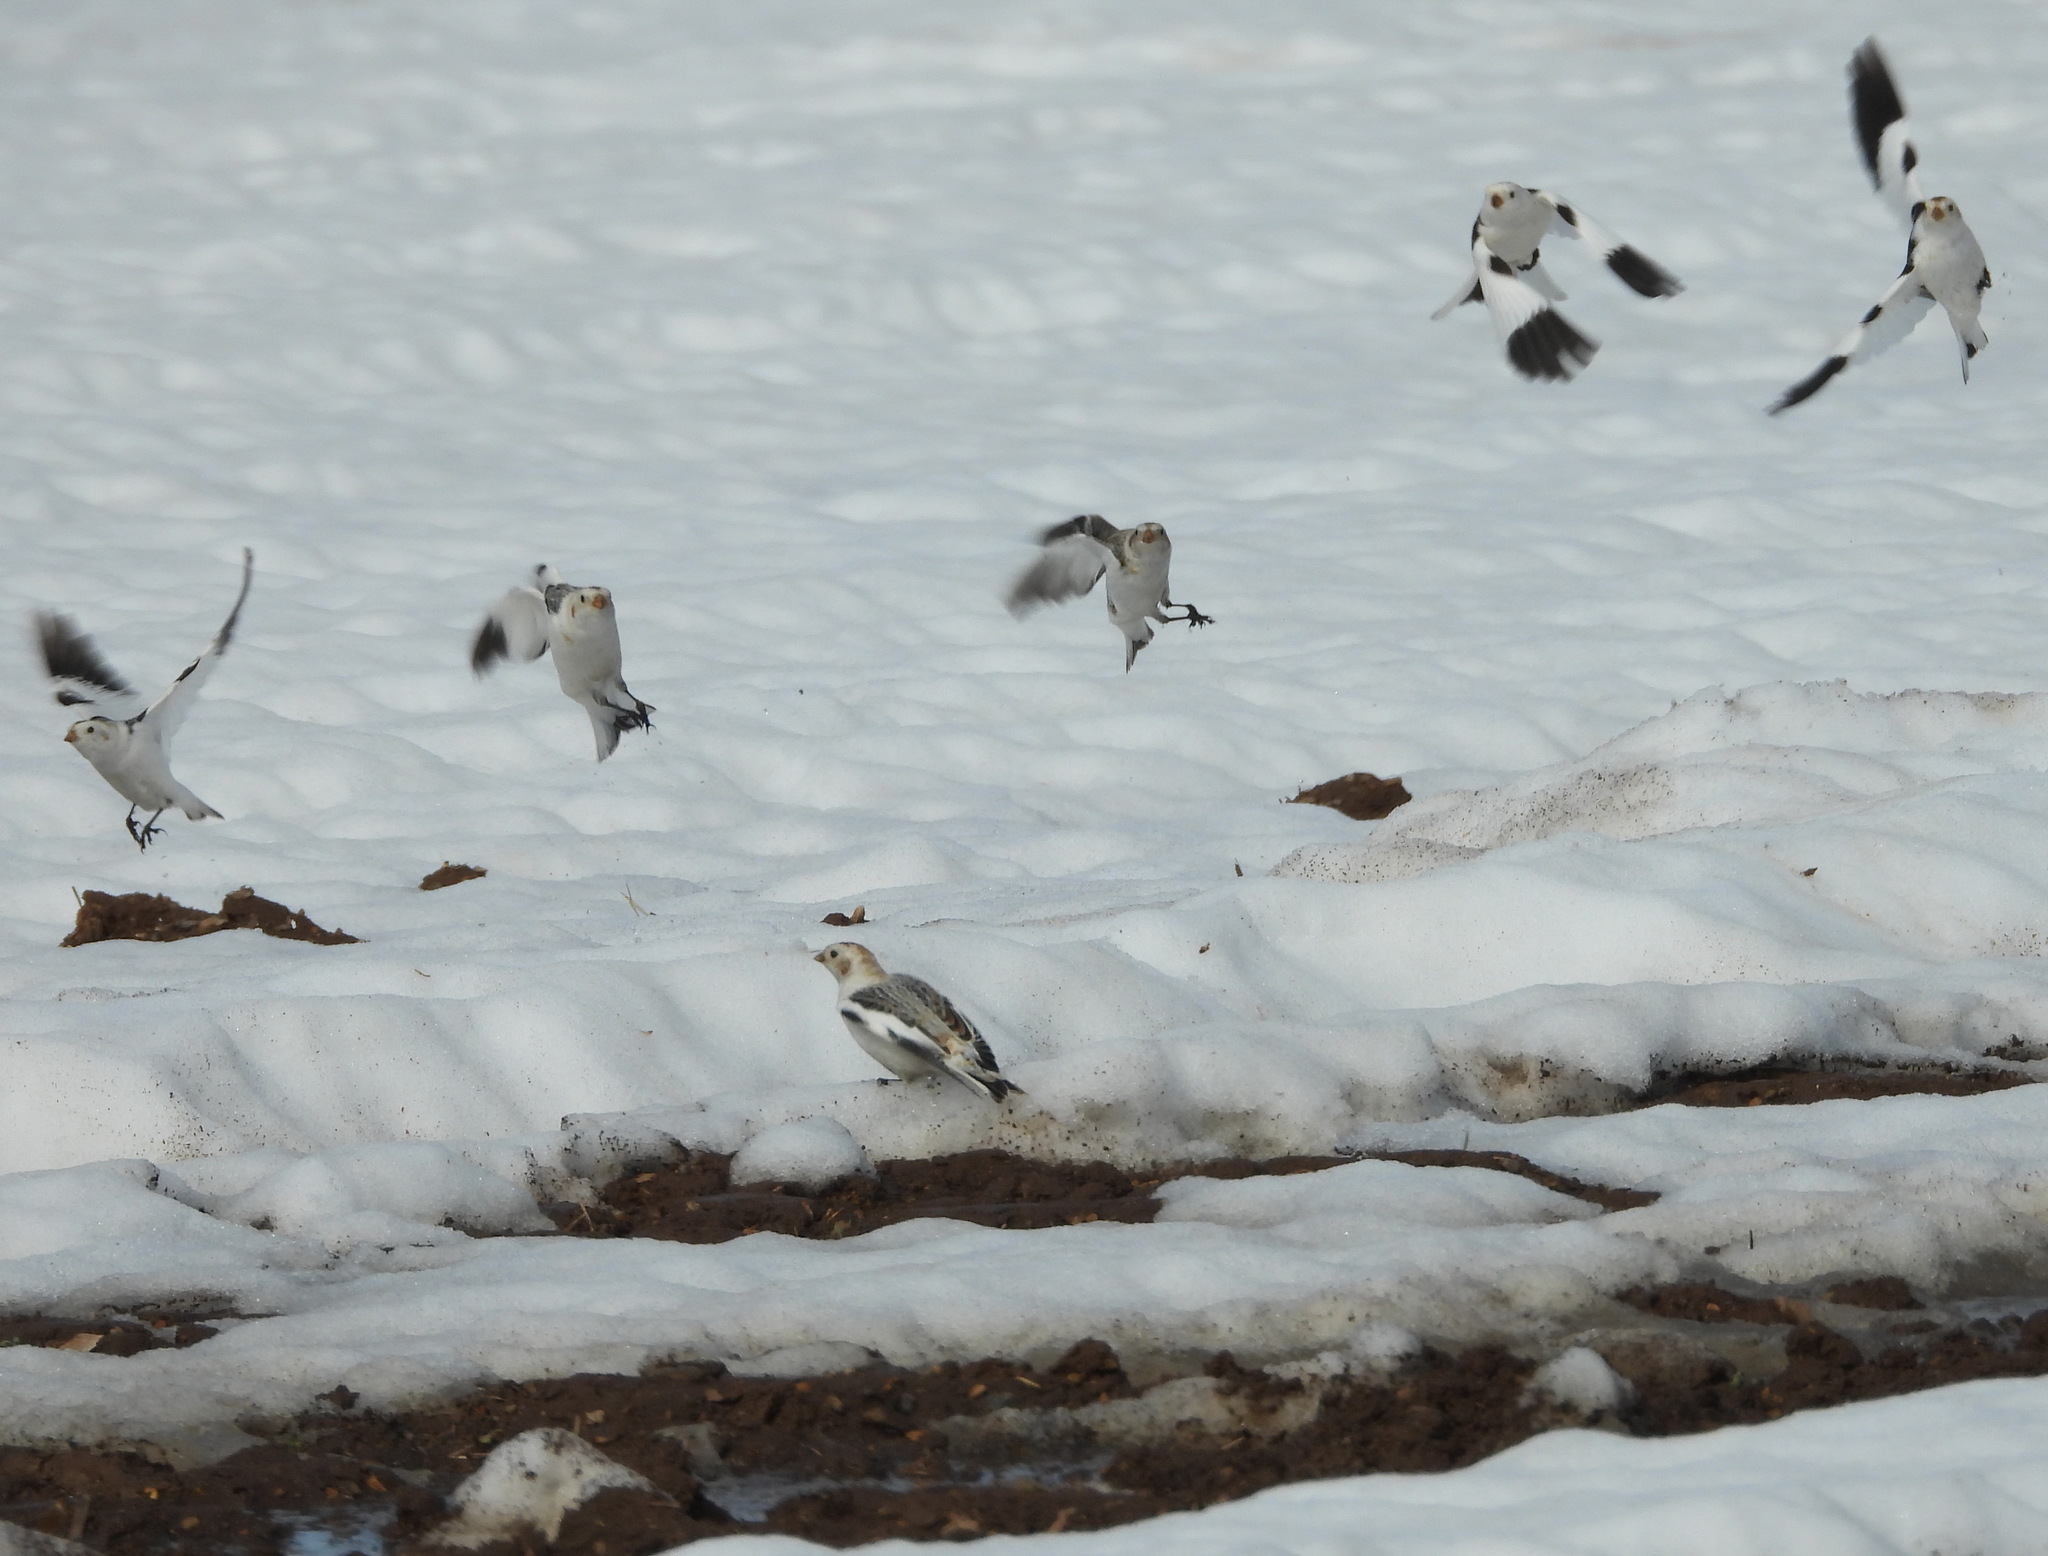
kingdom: Animalia
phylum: Chordata
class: Aves
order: Passeriformes
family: Calcariidae
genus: Plectrophenax
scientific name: Plectrophenax nivalis
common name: Snow bunting
